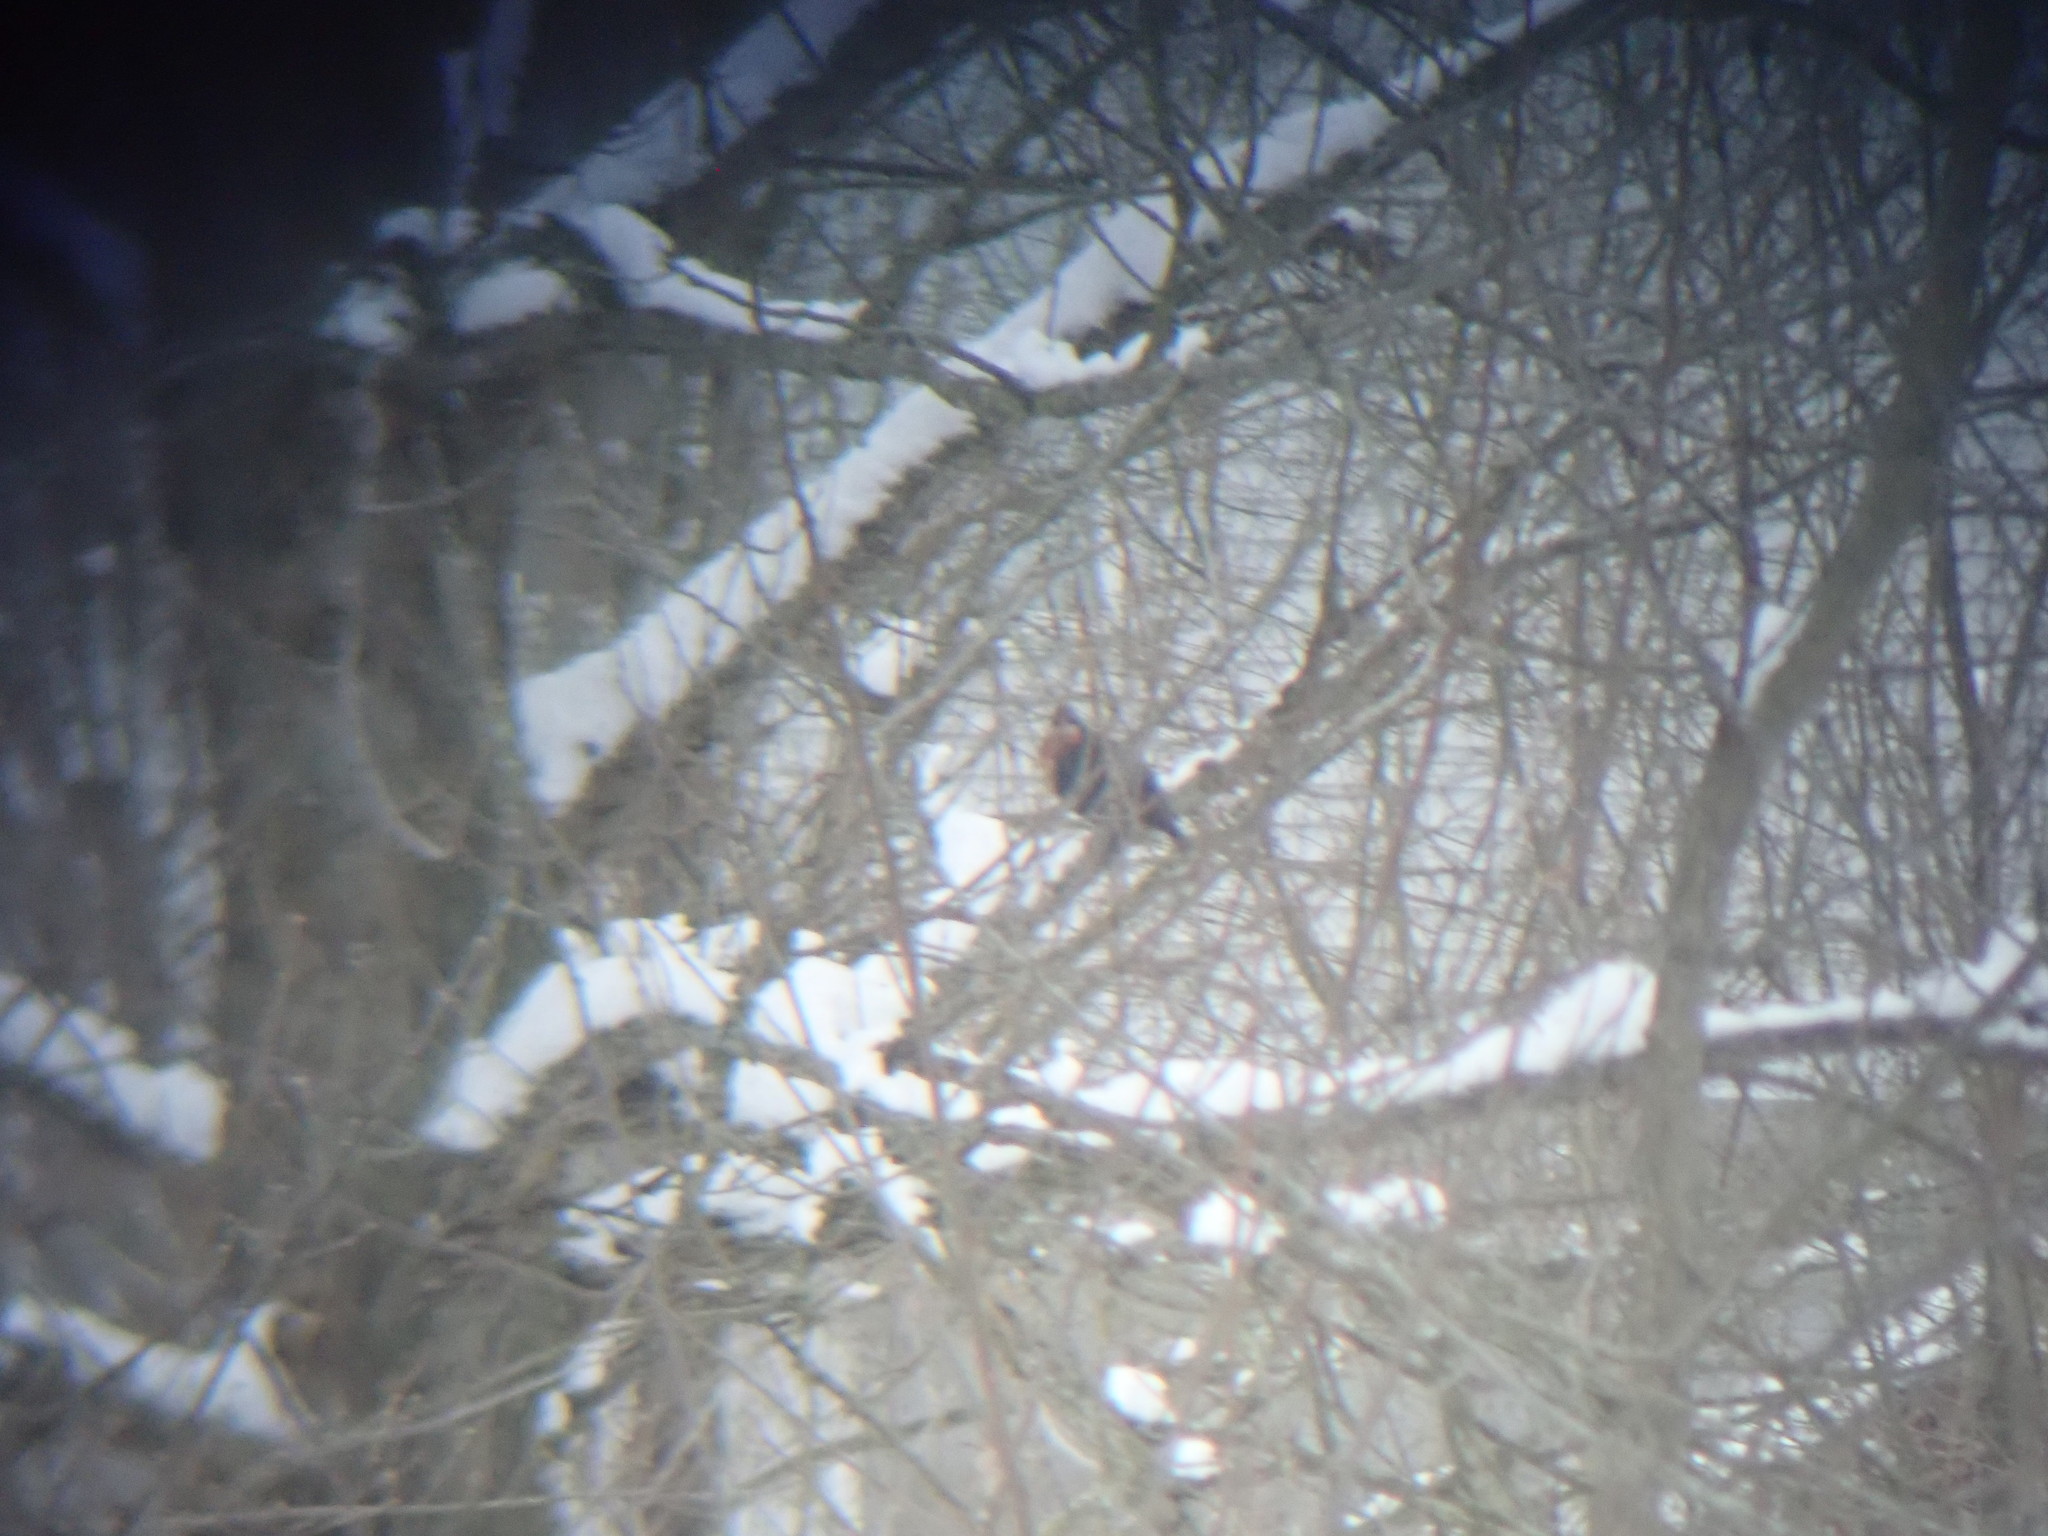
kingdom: Animalia
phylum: Chordata
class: Aves
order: Passeriformes
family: Sturnidae
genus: Sturnus
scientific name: Sturnus vulgaris
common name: Common starling
